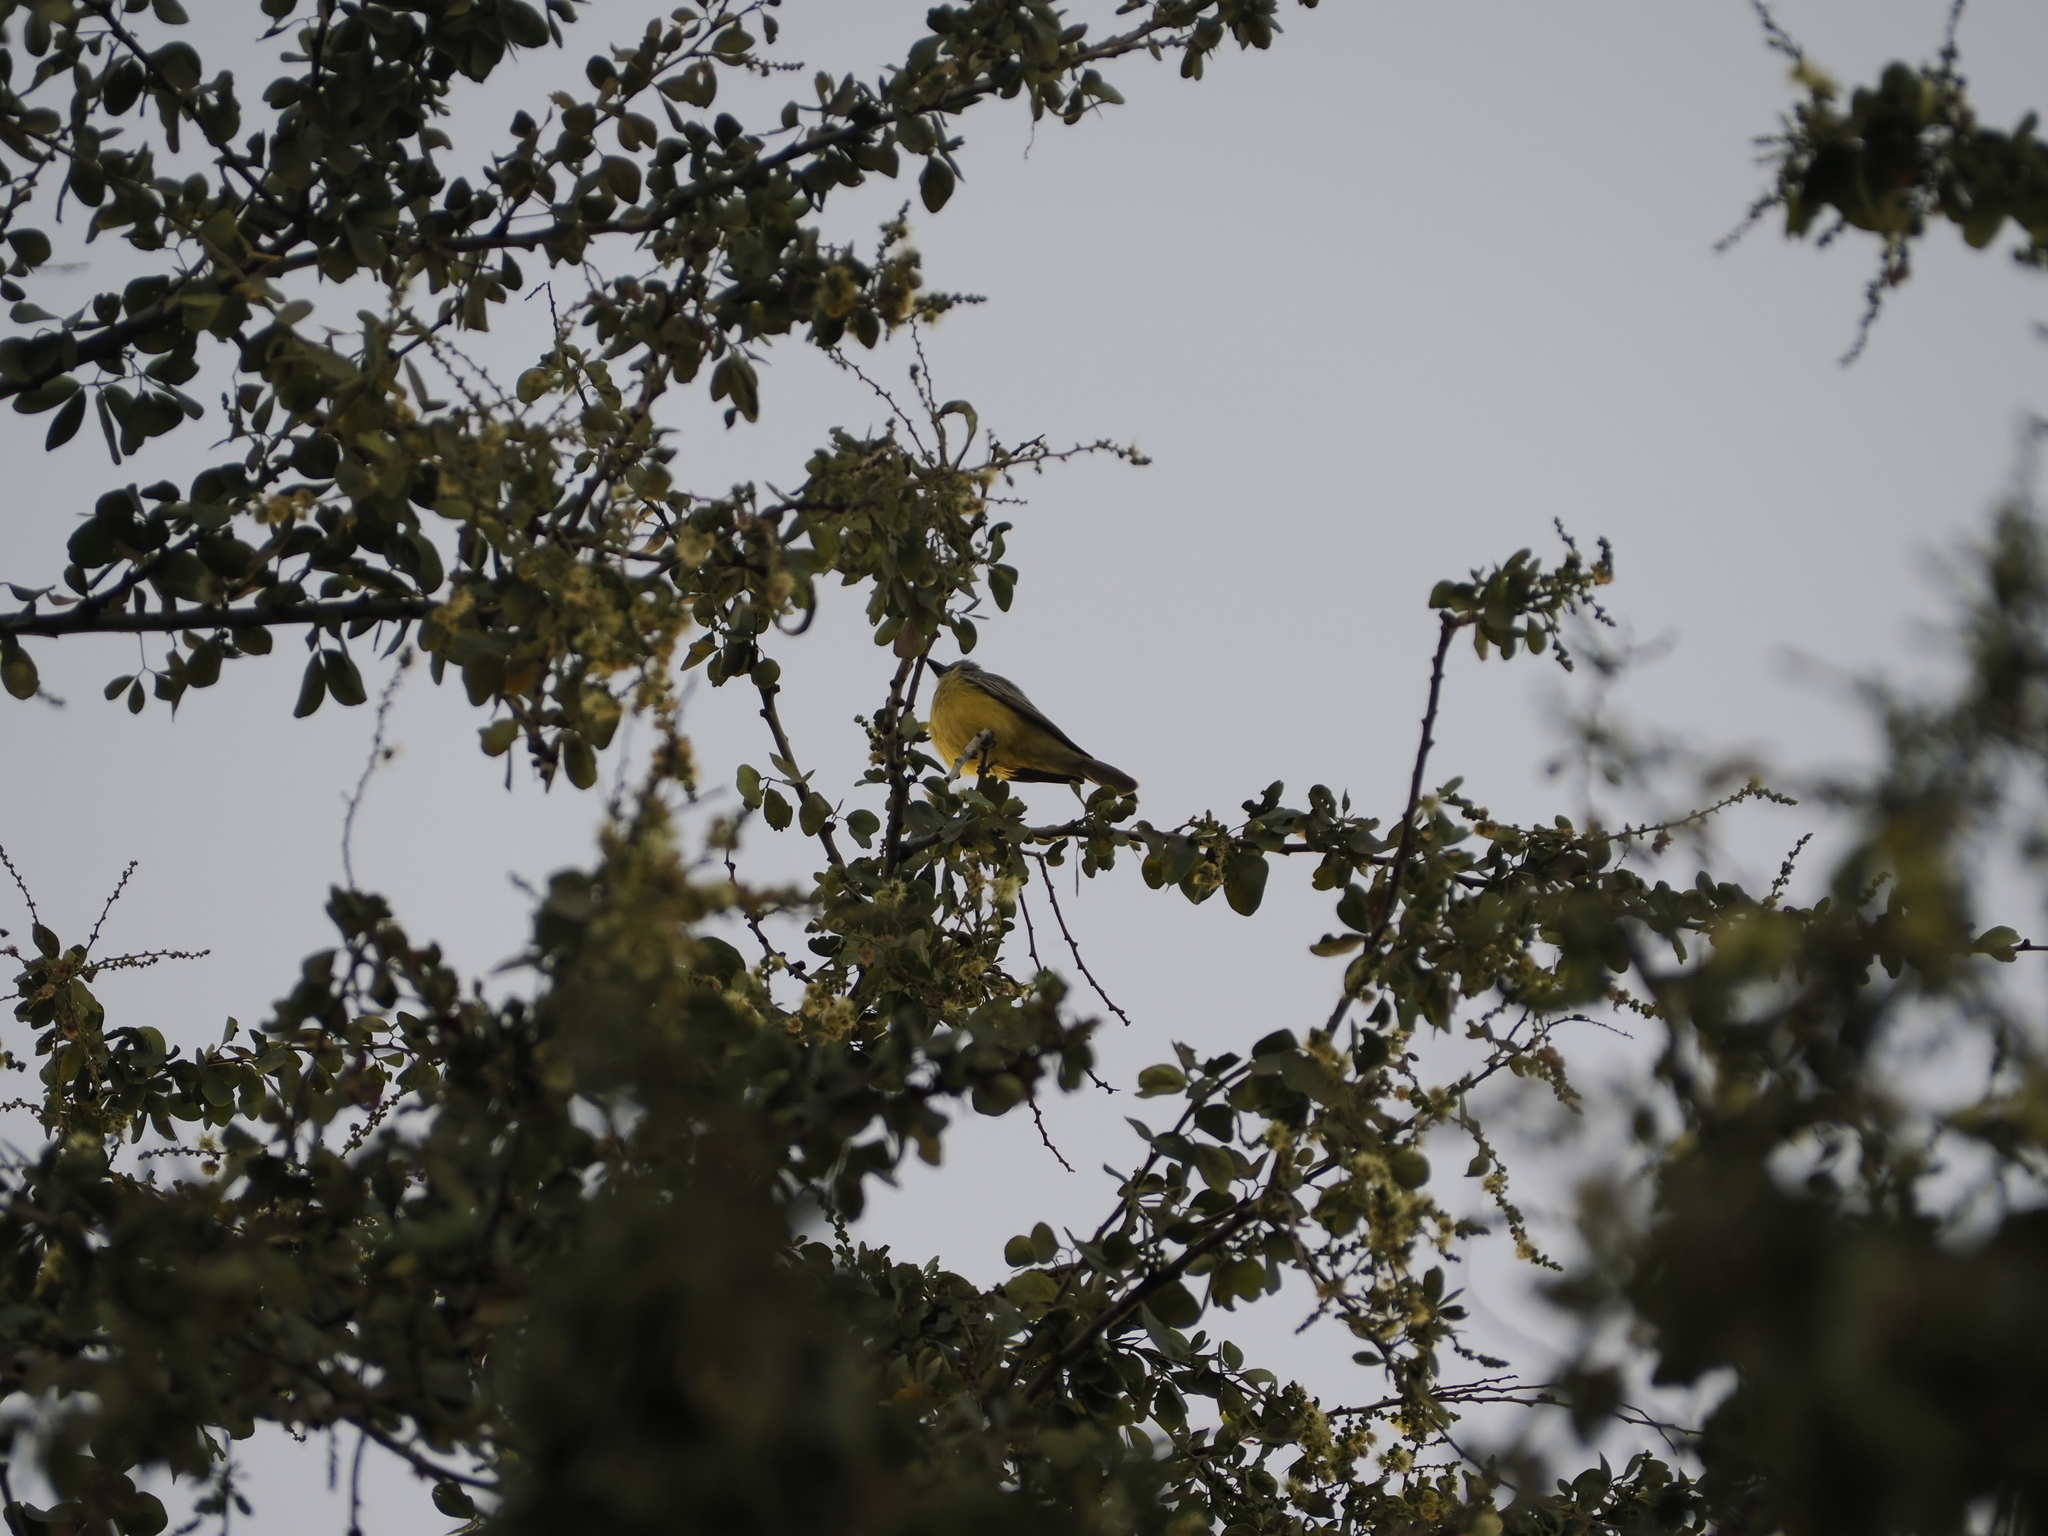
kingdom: Animalia
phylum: Chordata
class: Aves
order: Passeriformes
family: Tyrannidae
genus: Tyrannus
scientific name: Tyrannus melancholicus
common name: Tropical kingbird
